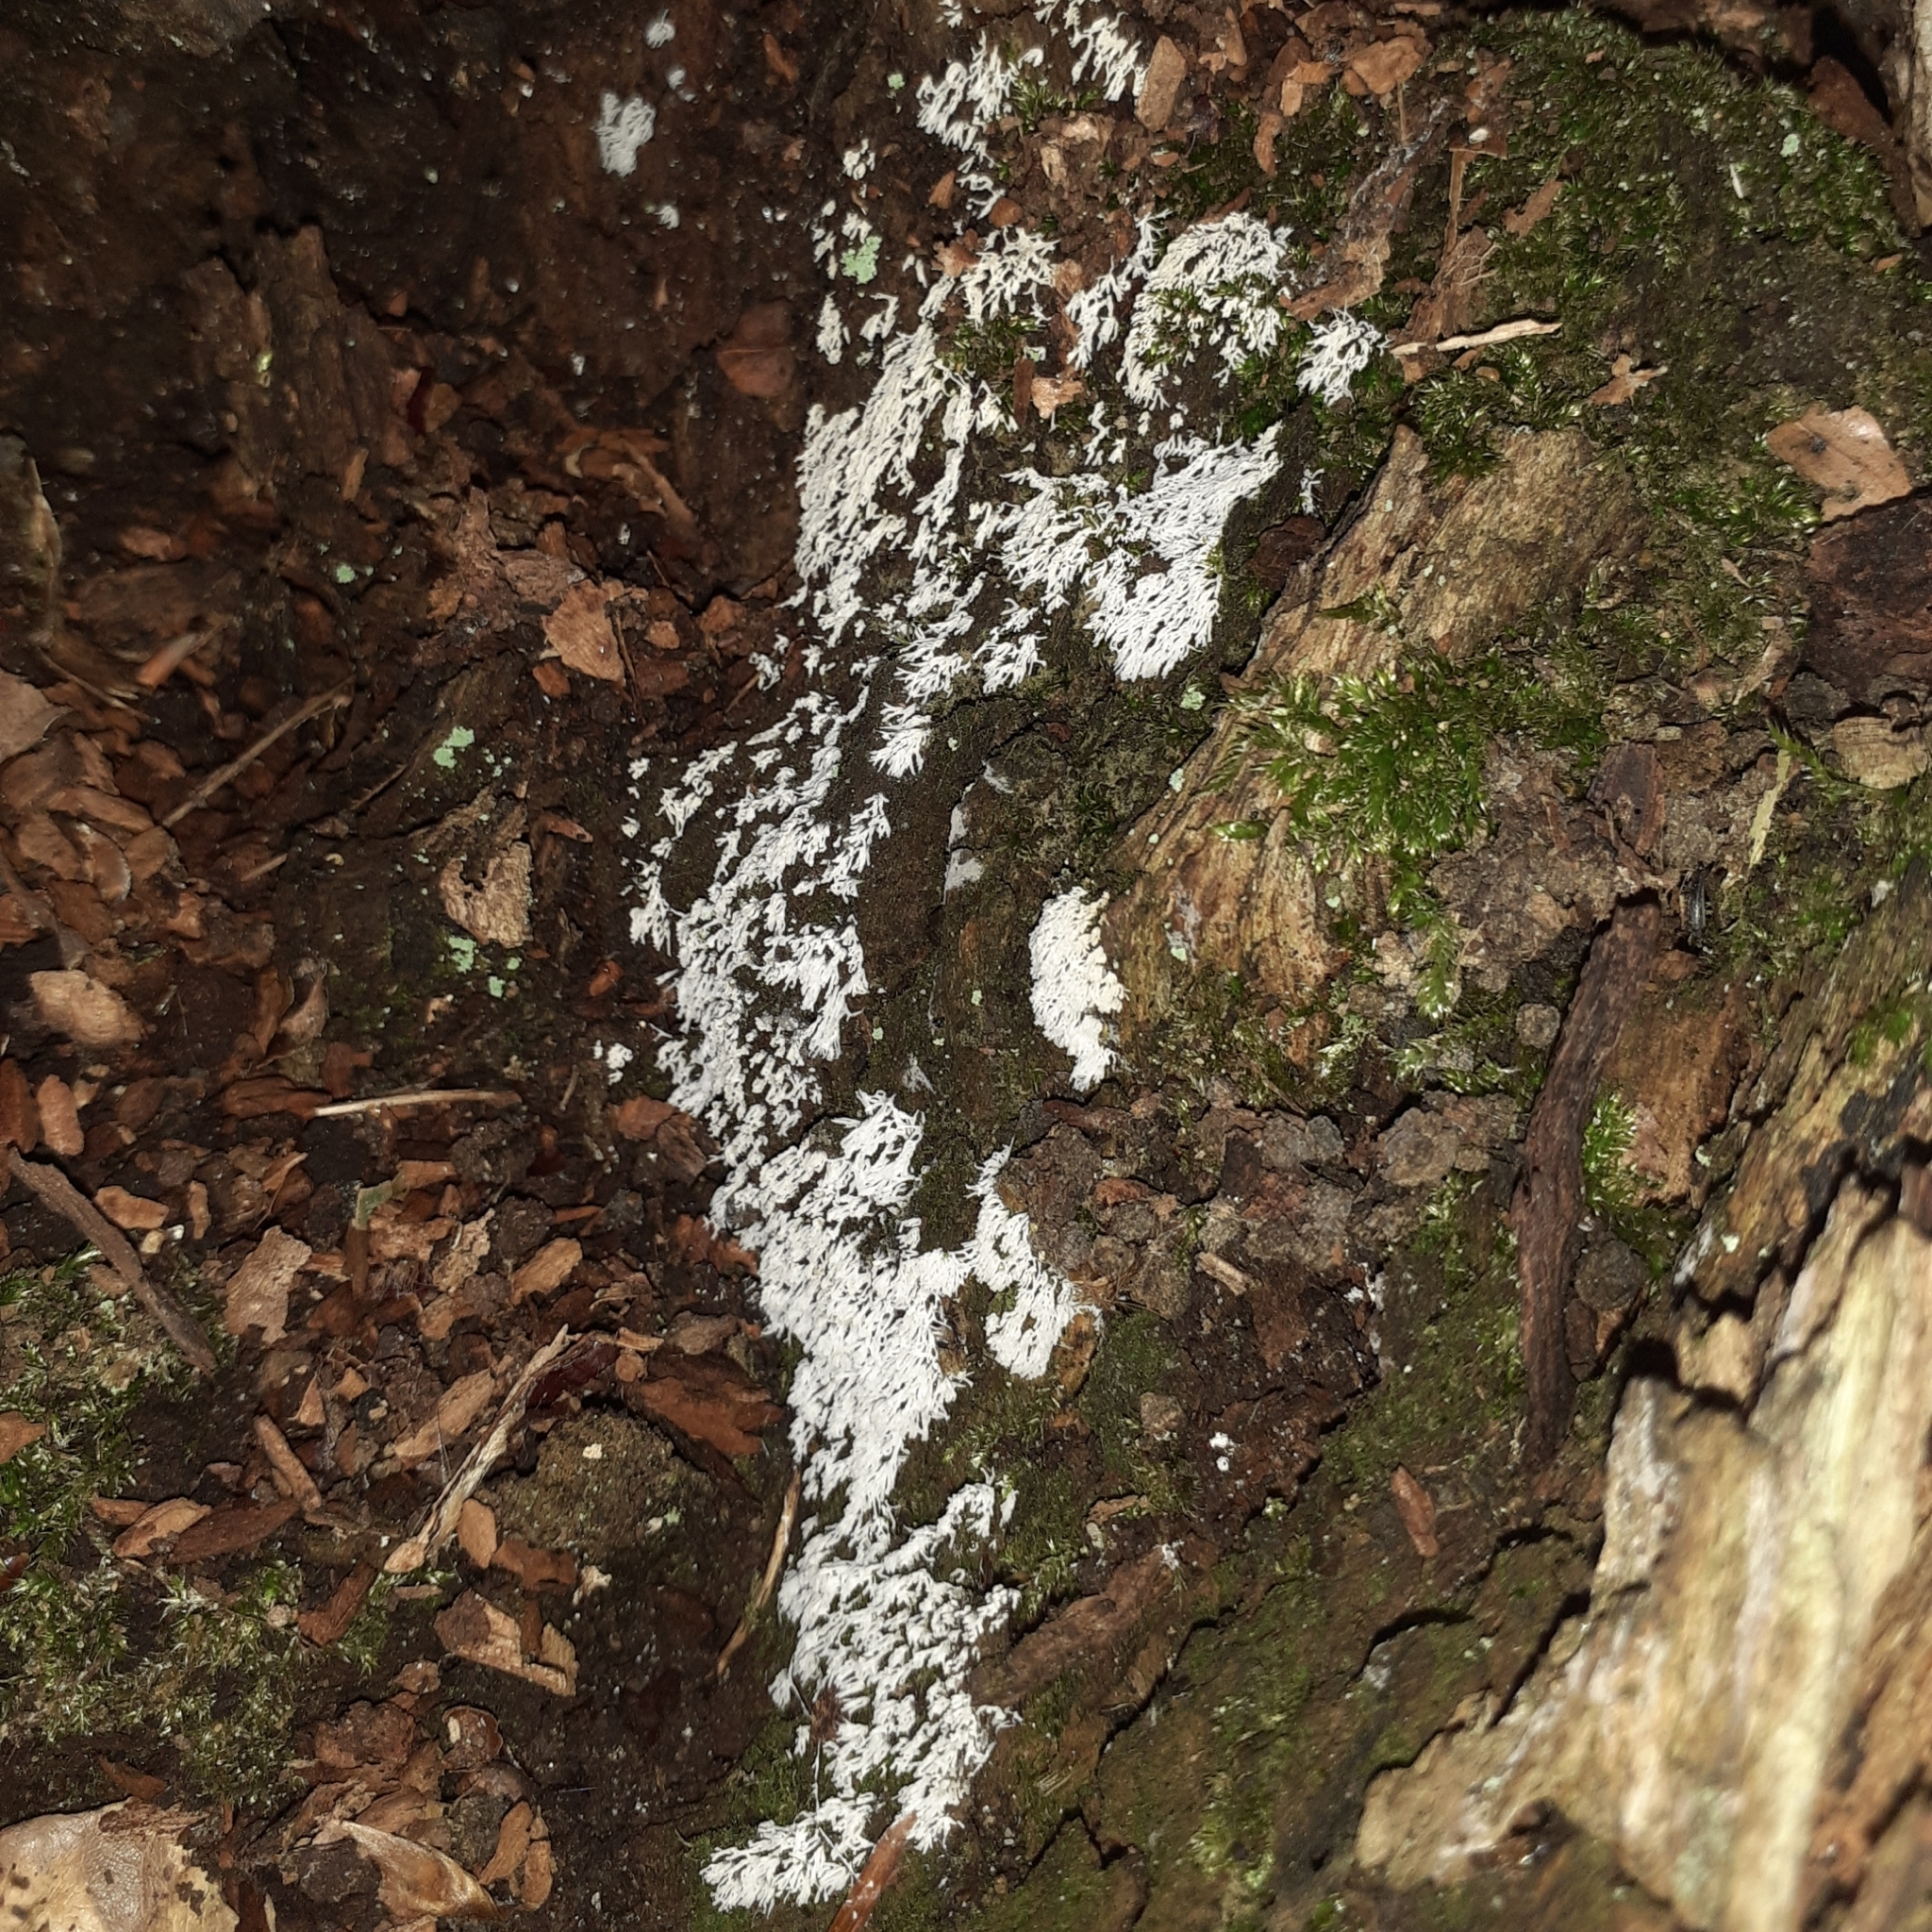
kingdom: Protozoa
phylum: Mycetozoa
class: Protosteliomycetes
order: Ceratiomyxales
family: Ceratiomyxaceae
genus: Ceratiomyxa
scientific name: Ceratiomyxa fruticulosa
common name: Honeycomb coral slime mold
